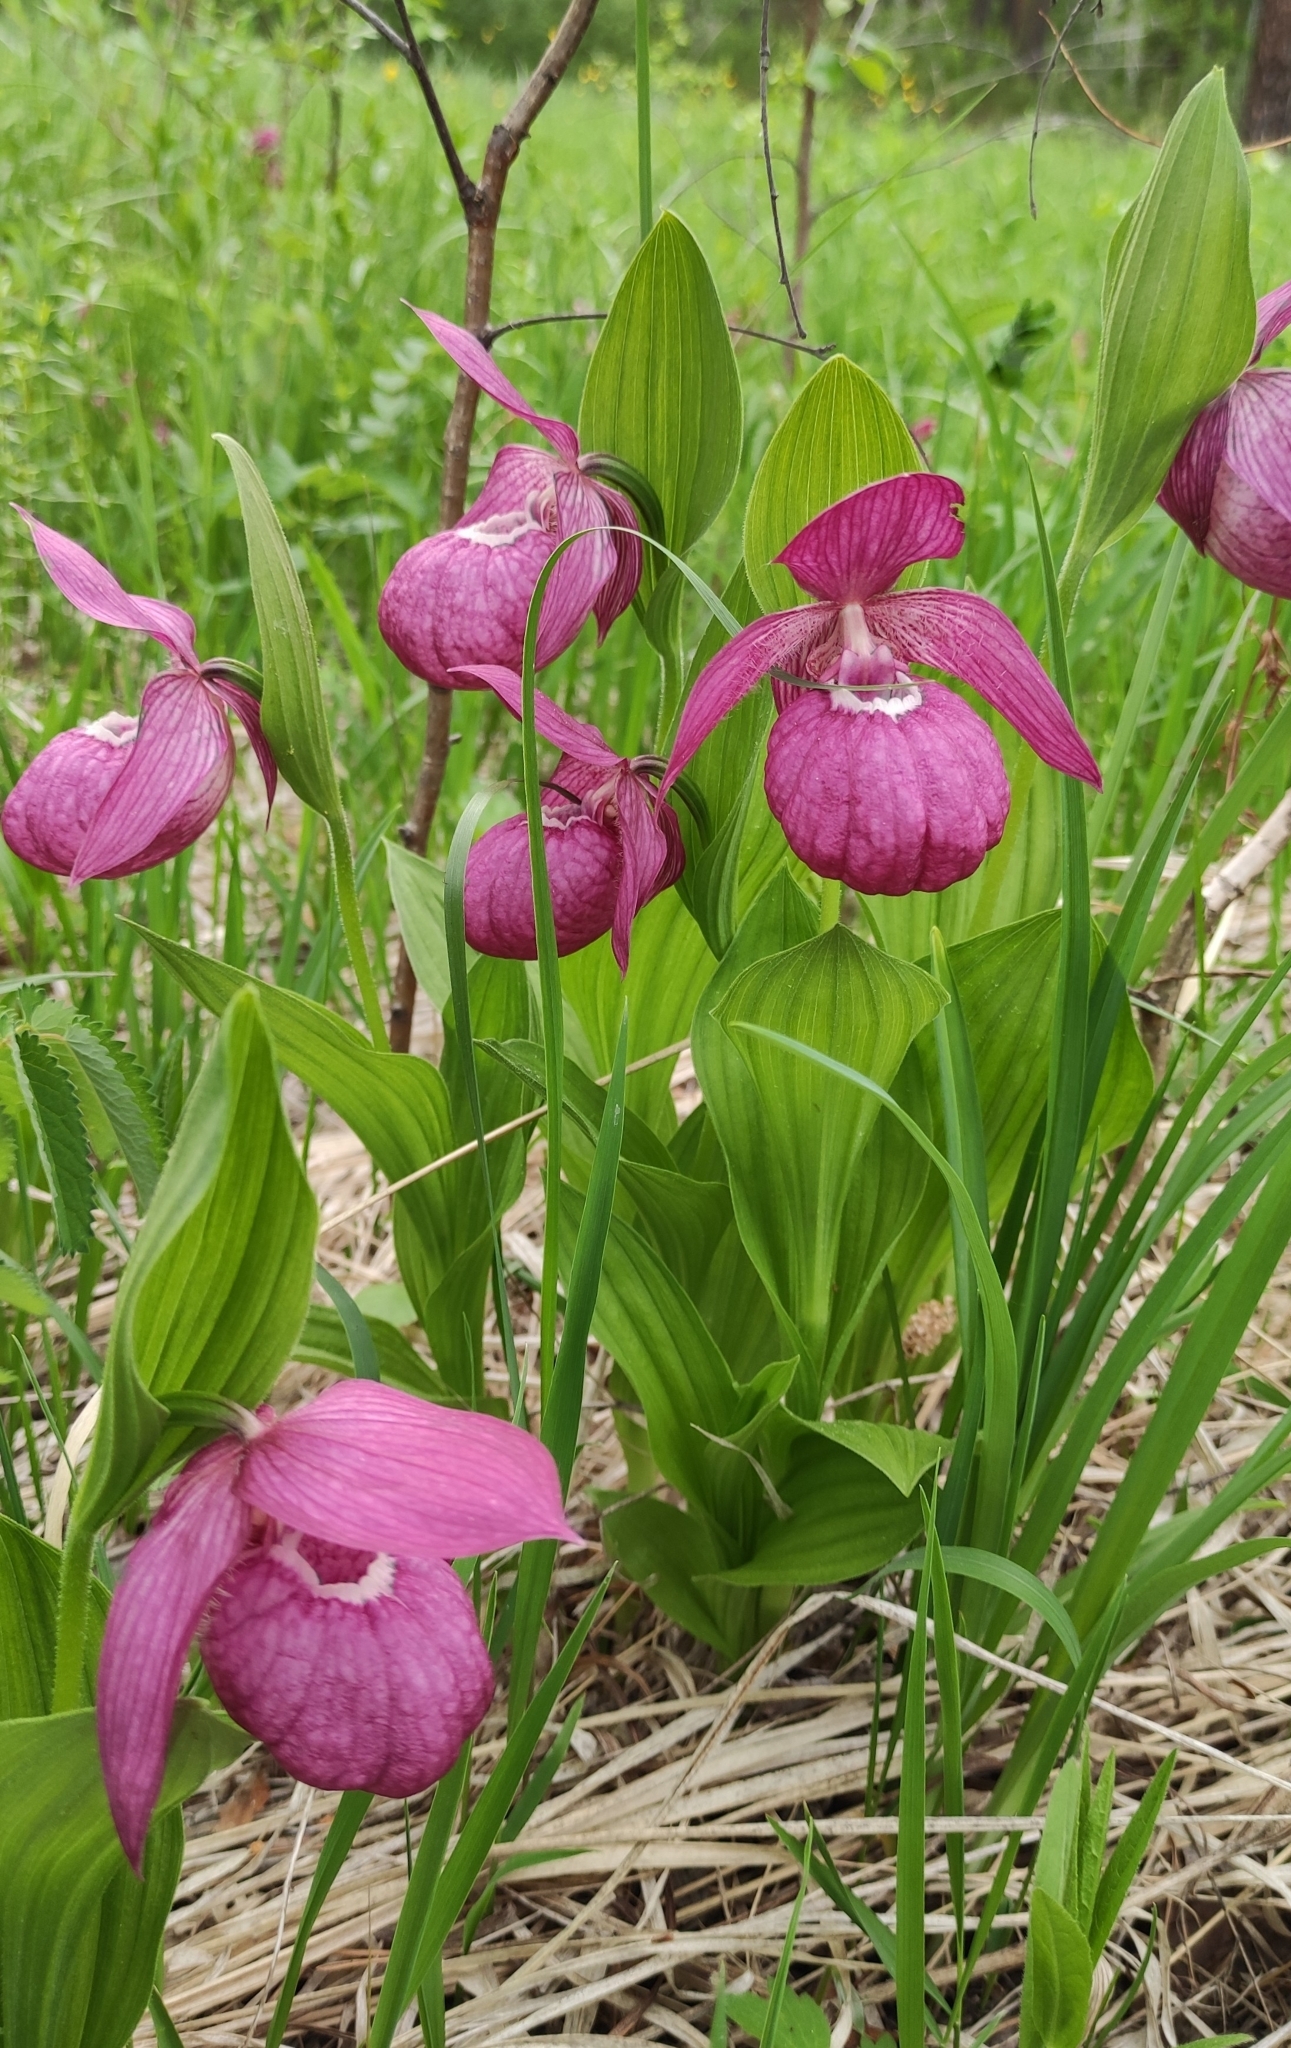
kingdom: Plantae
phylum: Tracheophyta
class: Liliopsida
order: Asparagales
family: Orchidaceae
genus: Cypripedium
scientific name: Cypripedium macranthos
